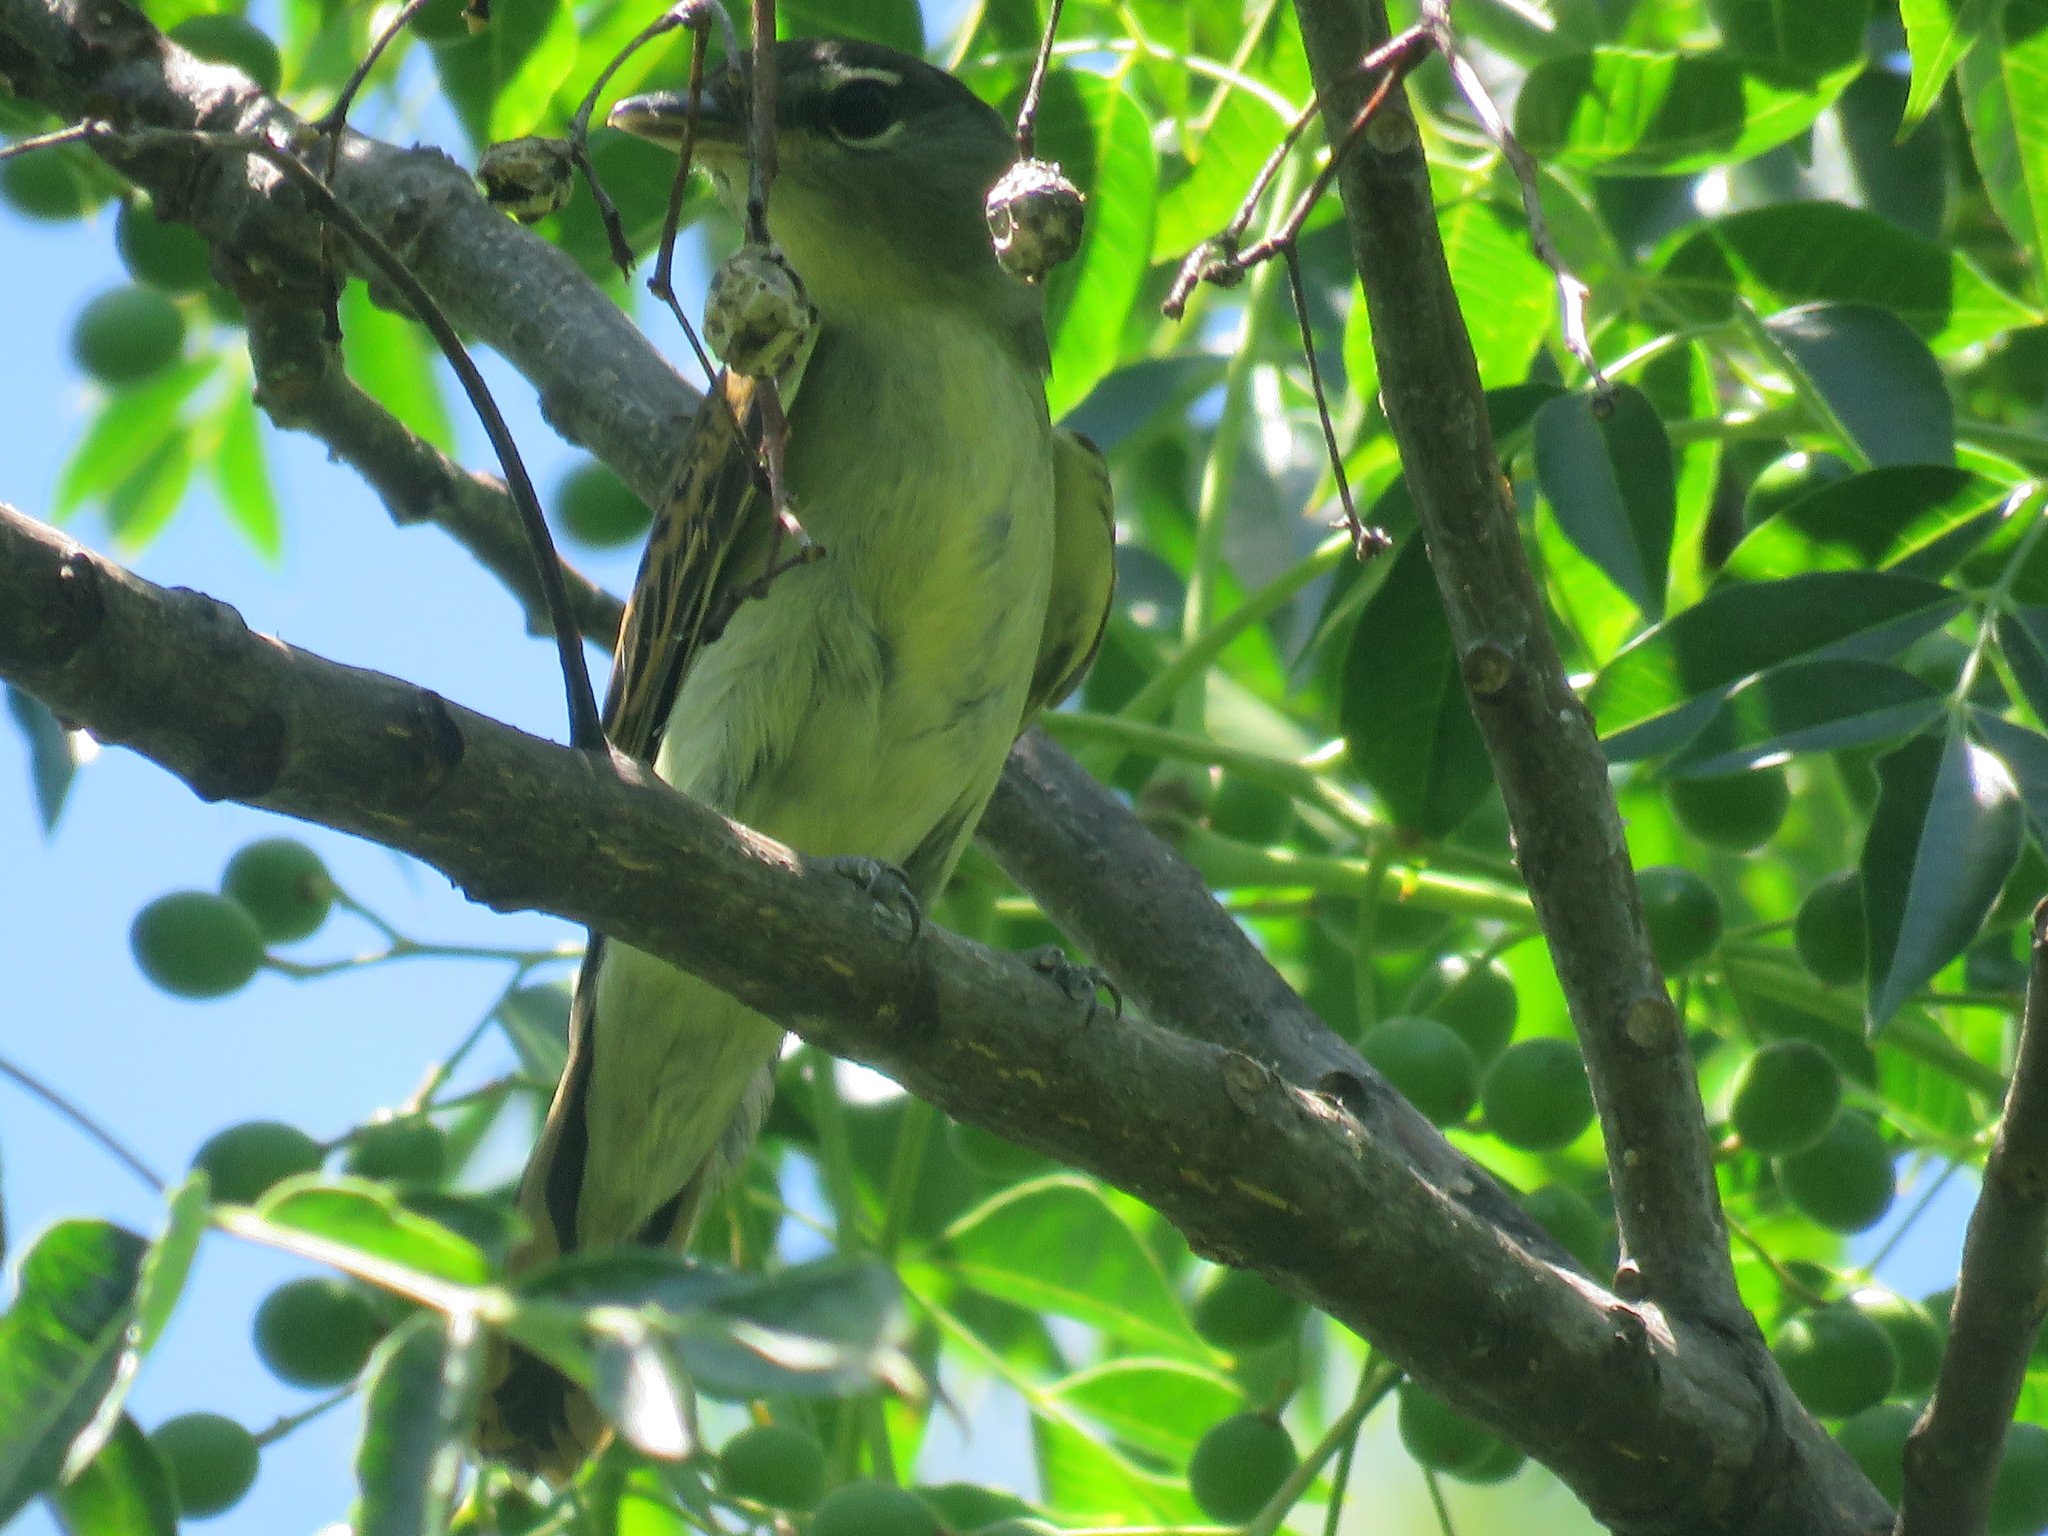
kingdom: Animalia
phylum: Chordata
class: Aves
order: Passeriformes
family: Cotingidae
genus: Pachyramphus
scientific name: Pachyramphus polychopterus
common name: White-winged becard
